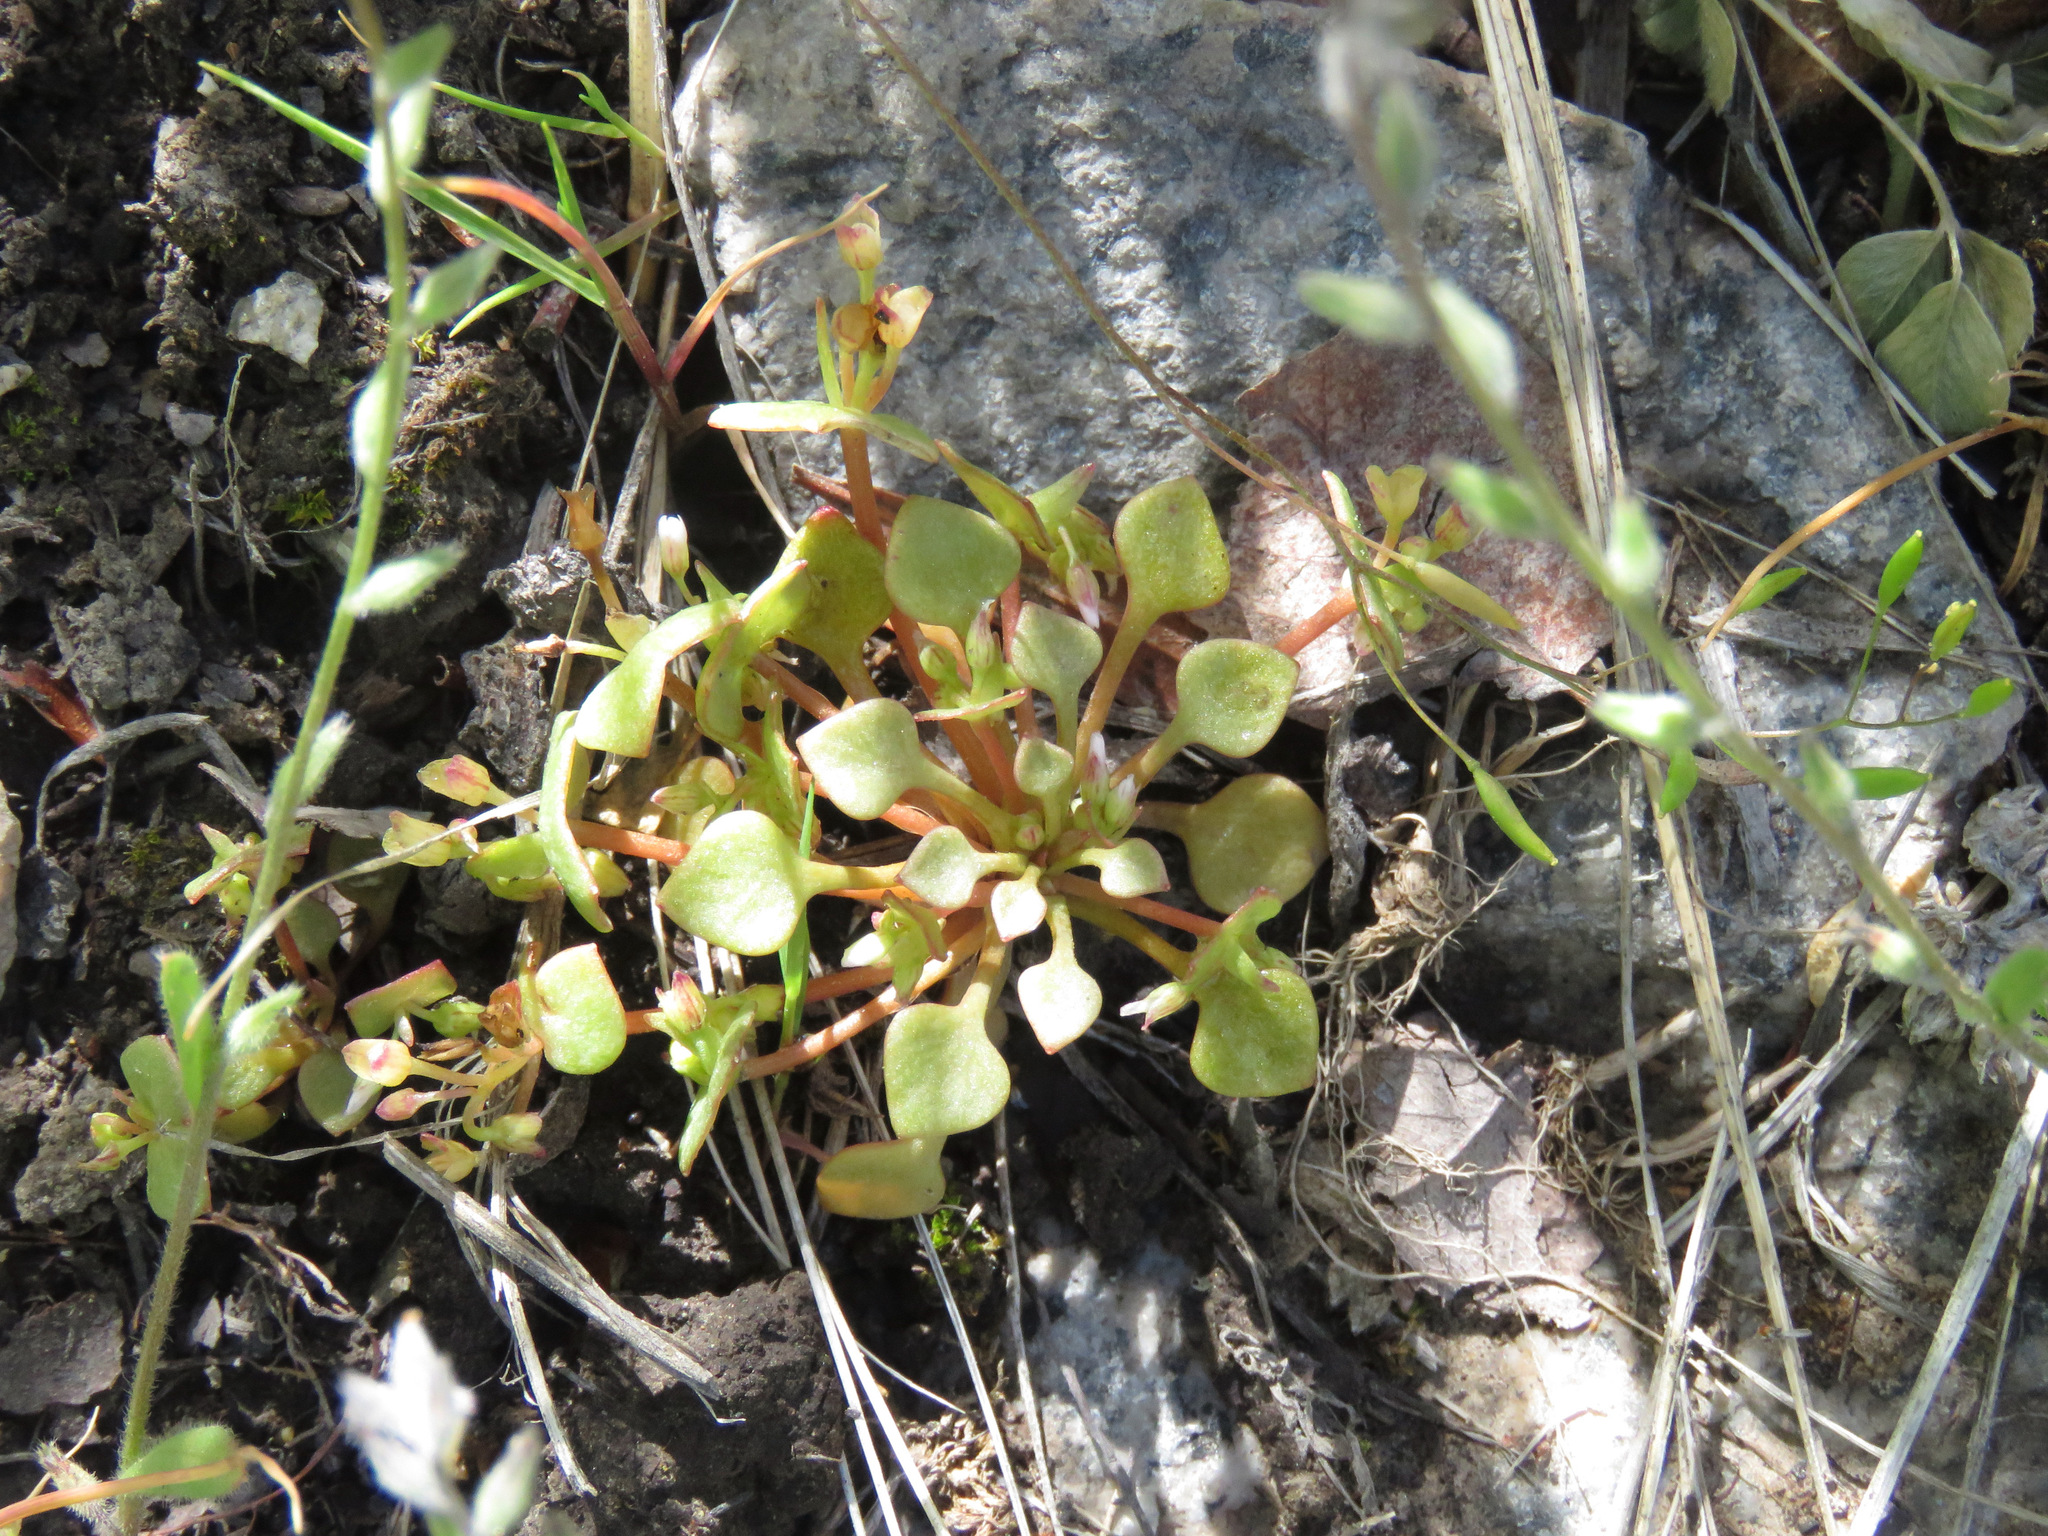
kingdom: Plantae
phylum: Tracheophyta
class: Magnoliopsida
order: Caryophyllales
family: Montiaceae
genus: Claytonia
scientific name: Claytonia rubra
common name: Erubescent miner's-lettuce
